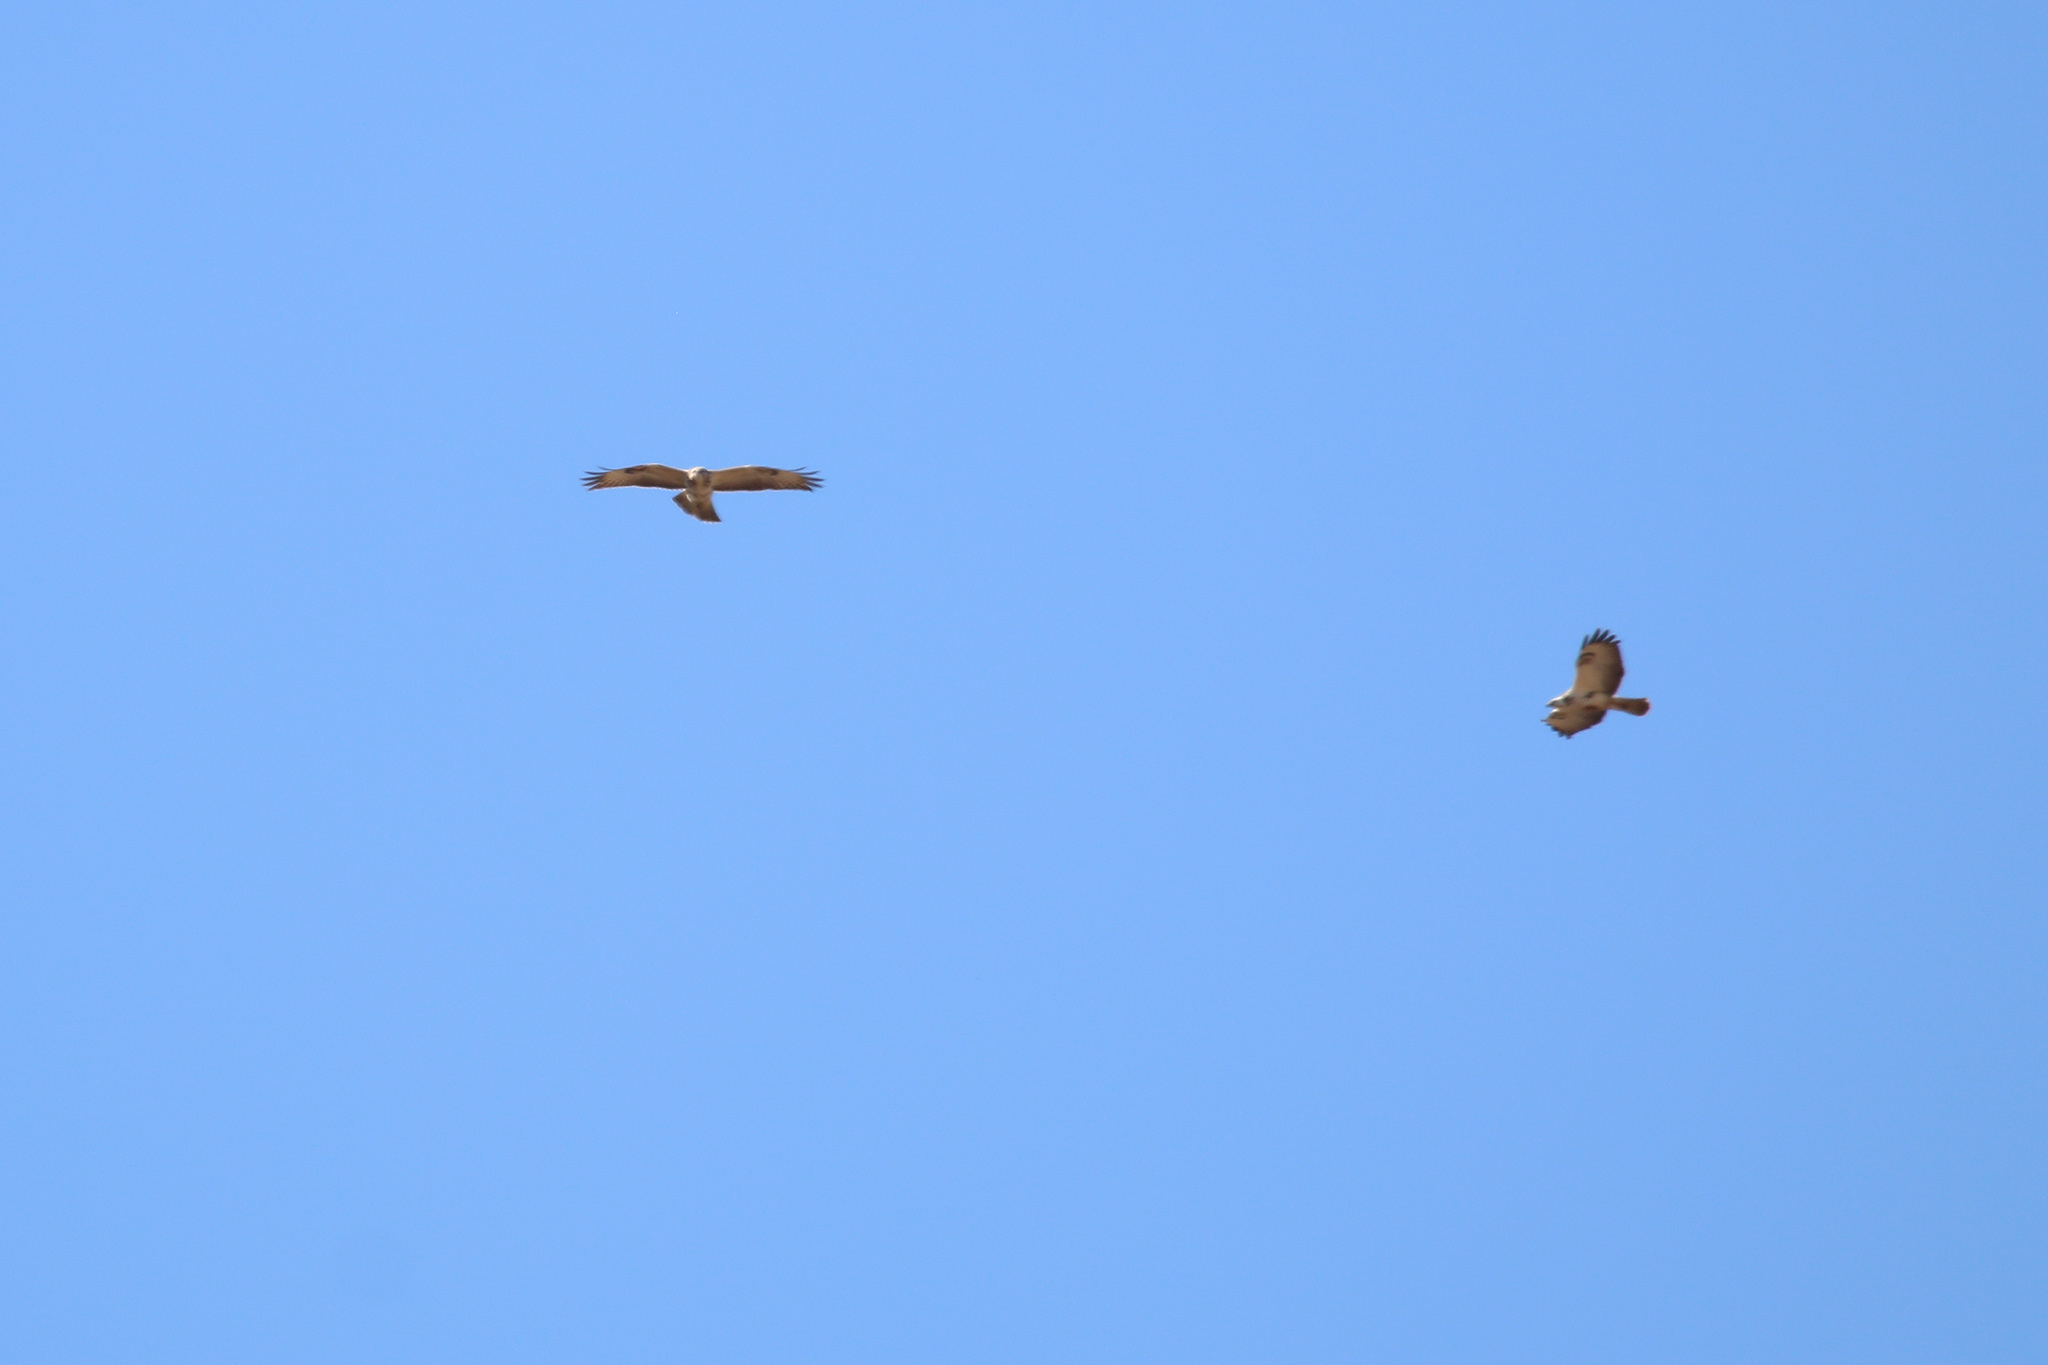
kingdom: Animalia
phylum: Chordata
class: Aves
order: Accipitriformes
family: Accipitridae
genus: Buteo
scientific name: Buteo buteo
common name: Common buzzard
